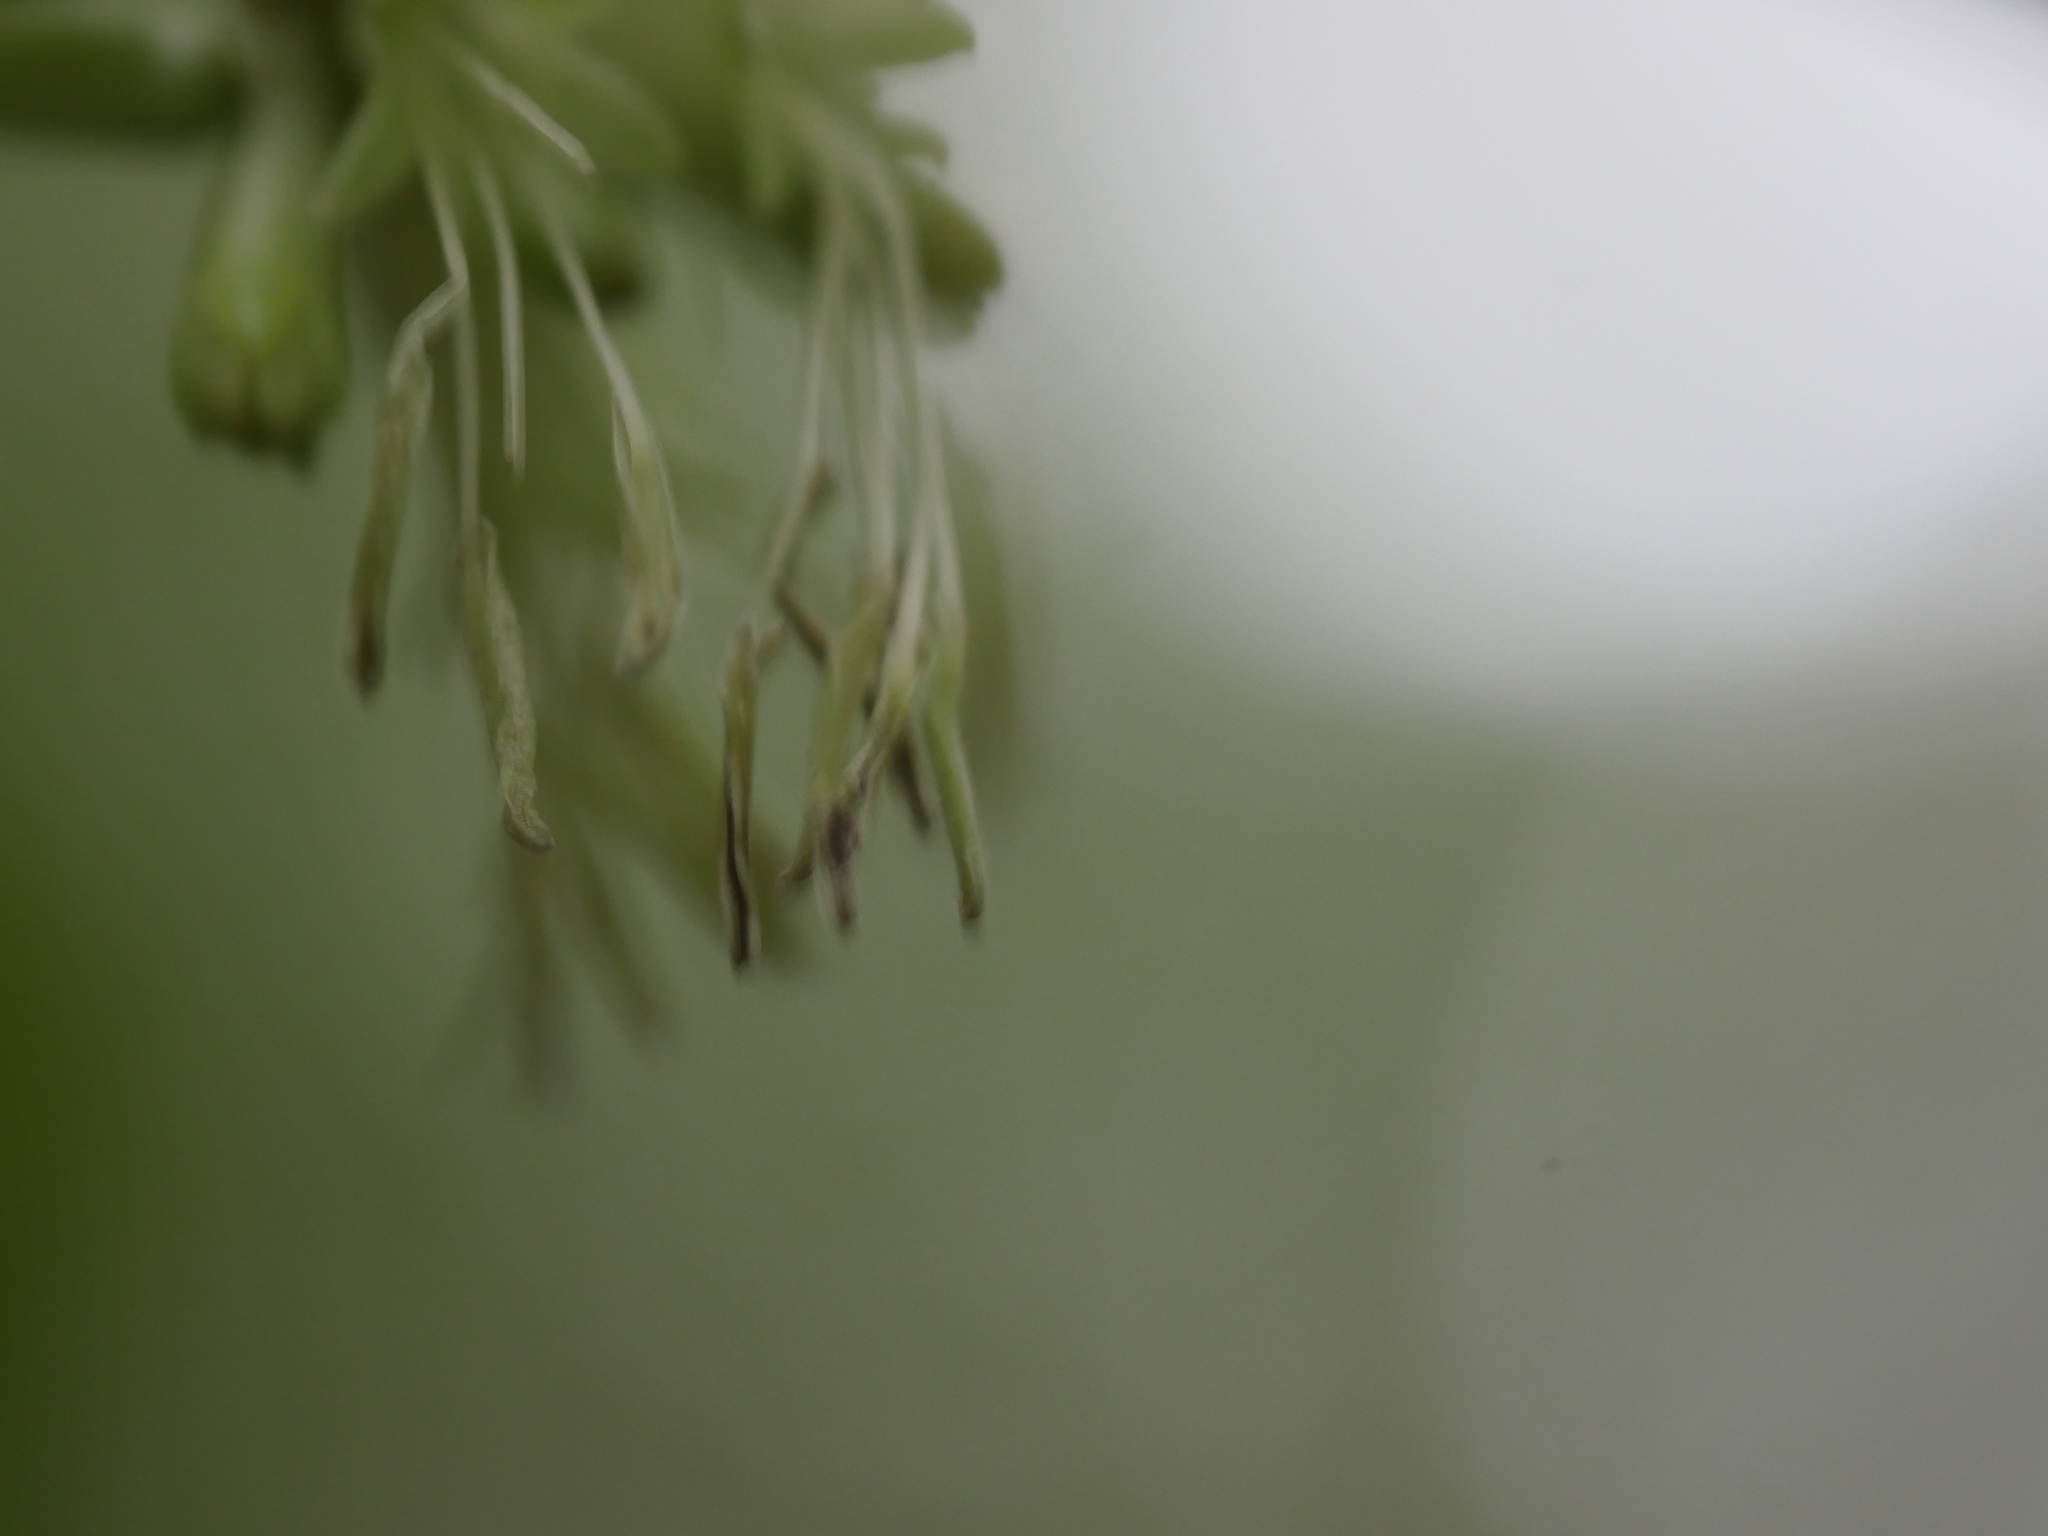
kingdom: Plantae
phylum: Tracheophyta
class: Magnoliopsida
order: Gentianales
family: Rubiaceae
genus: Coprosma
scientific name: Coprosma autumnalis
